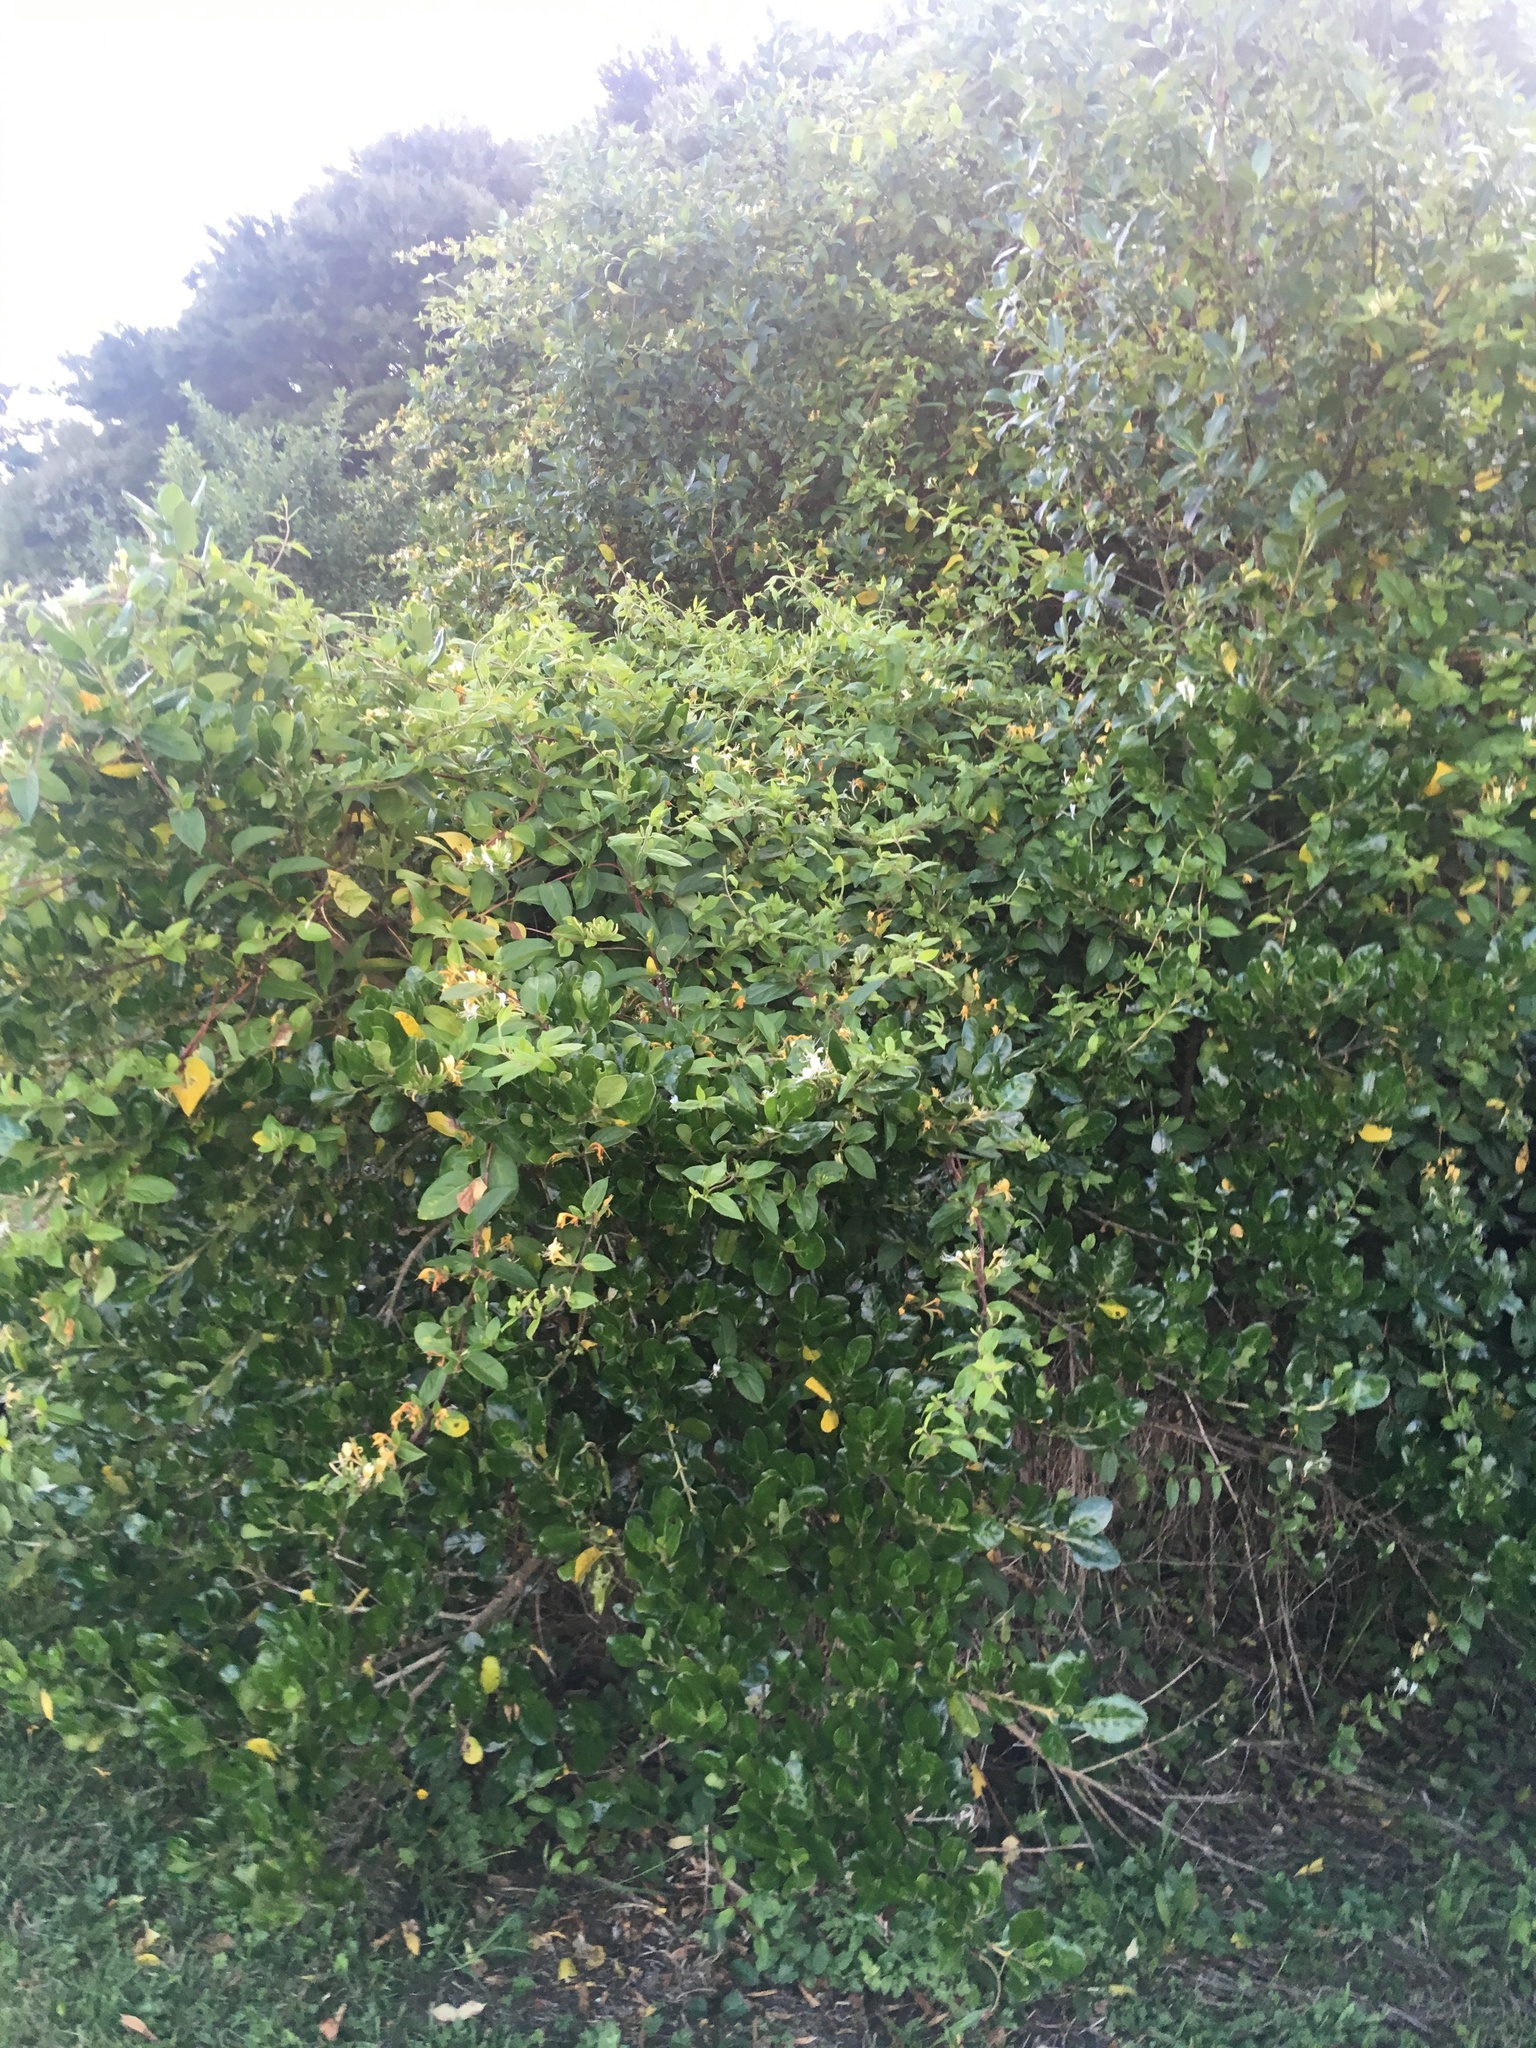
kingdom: Plantae
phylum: Tracheophyta
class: Magnoliopsida
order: Dipsacales
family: Caprifoliaceae
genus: Lonicera
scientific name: Lonicera japonica
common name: Japanese honeysuckle
